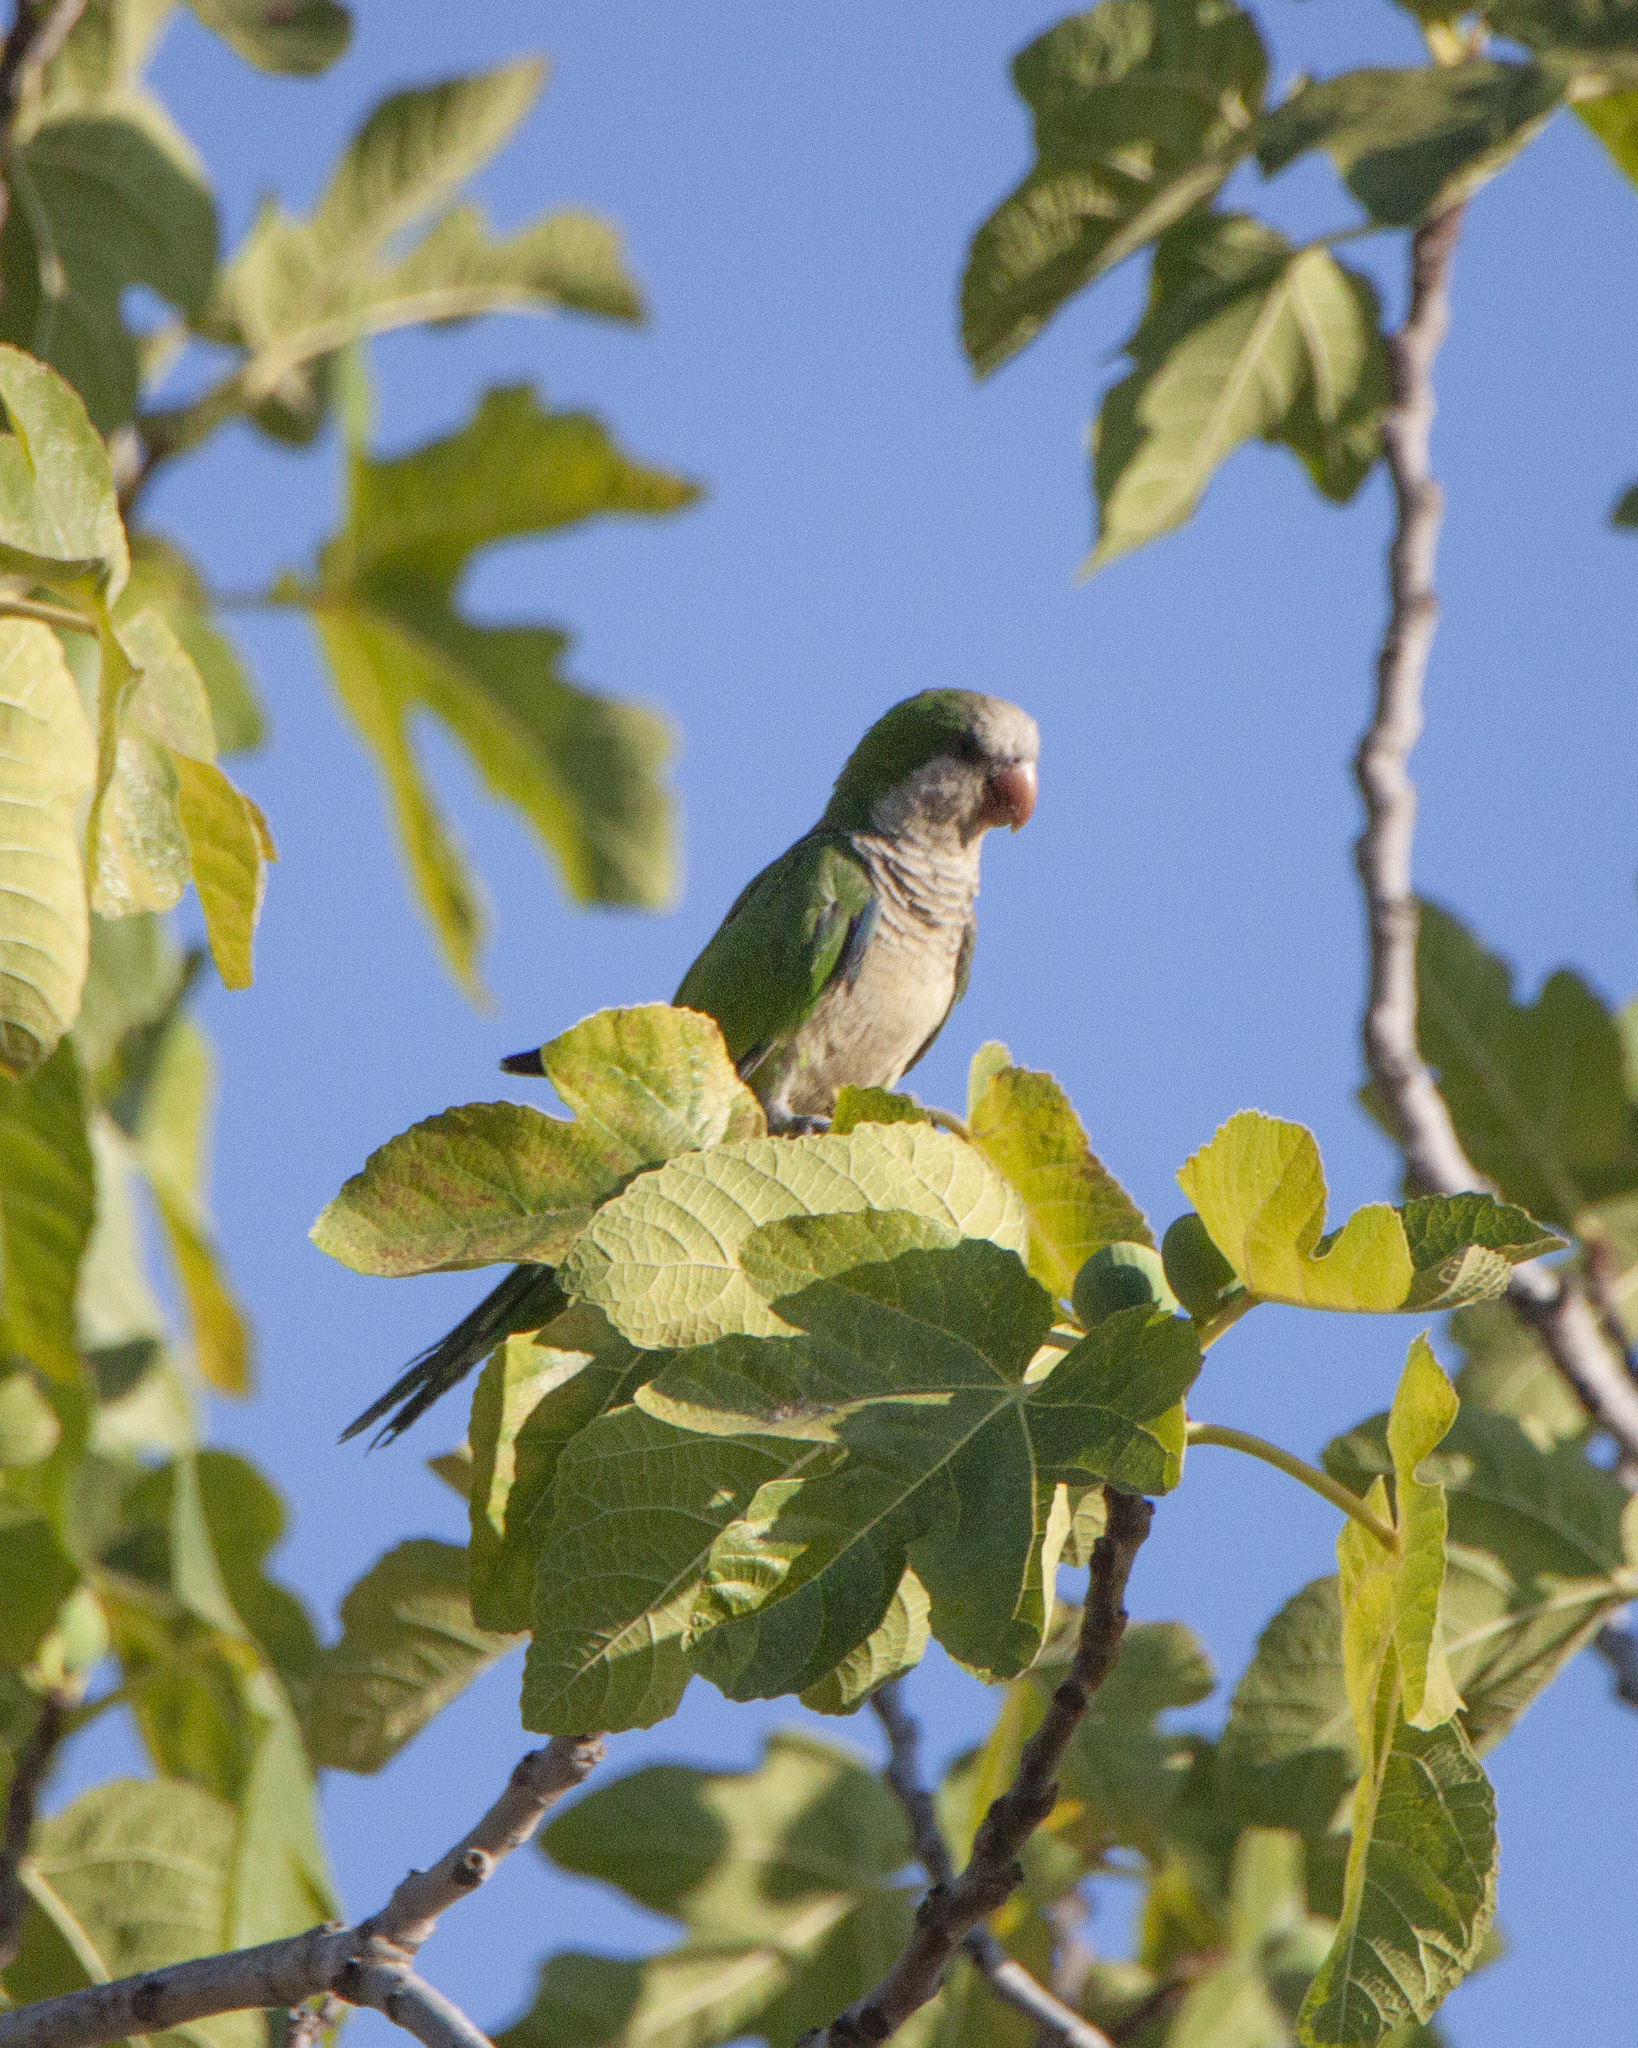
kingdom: Animalia
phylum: Chordata
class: Aves
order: Psittaciformes
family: Psittacidae
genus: Myiopsitta
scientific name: Myiopsitta monachus
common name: Monk parakeet
